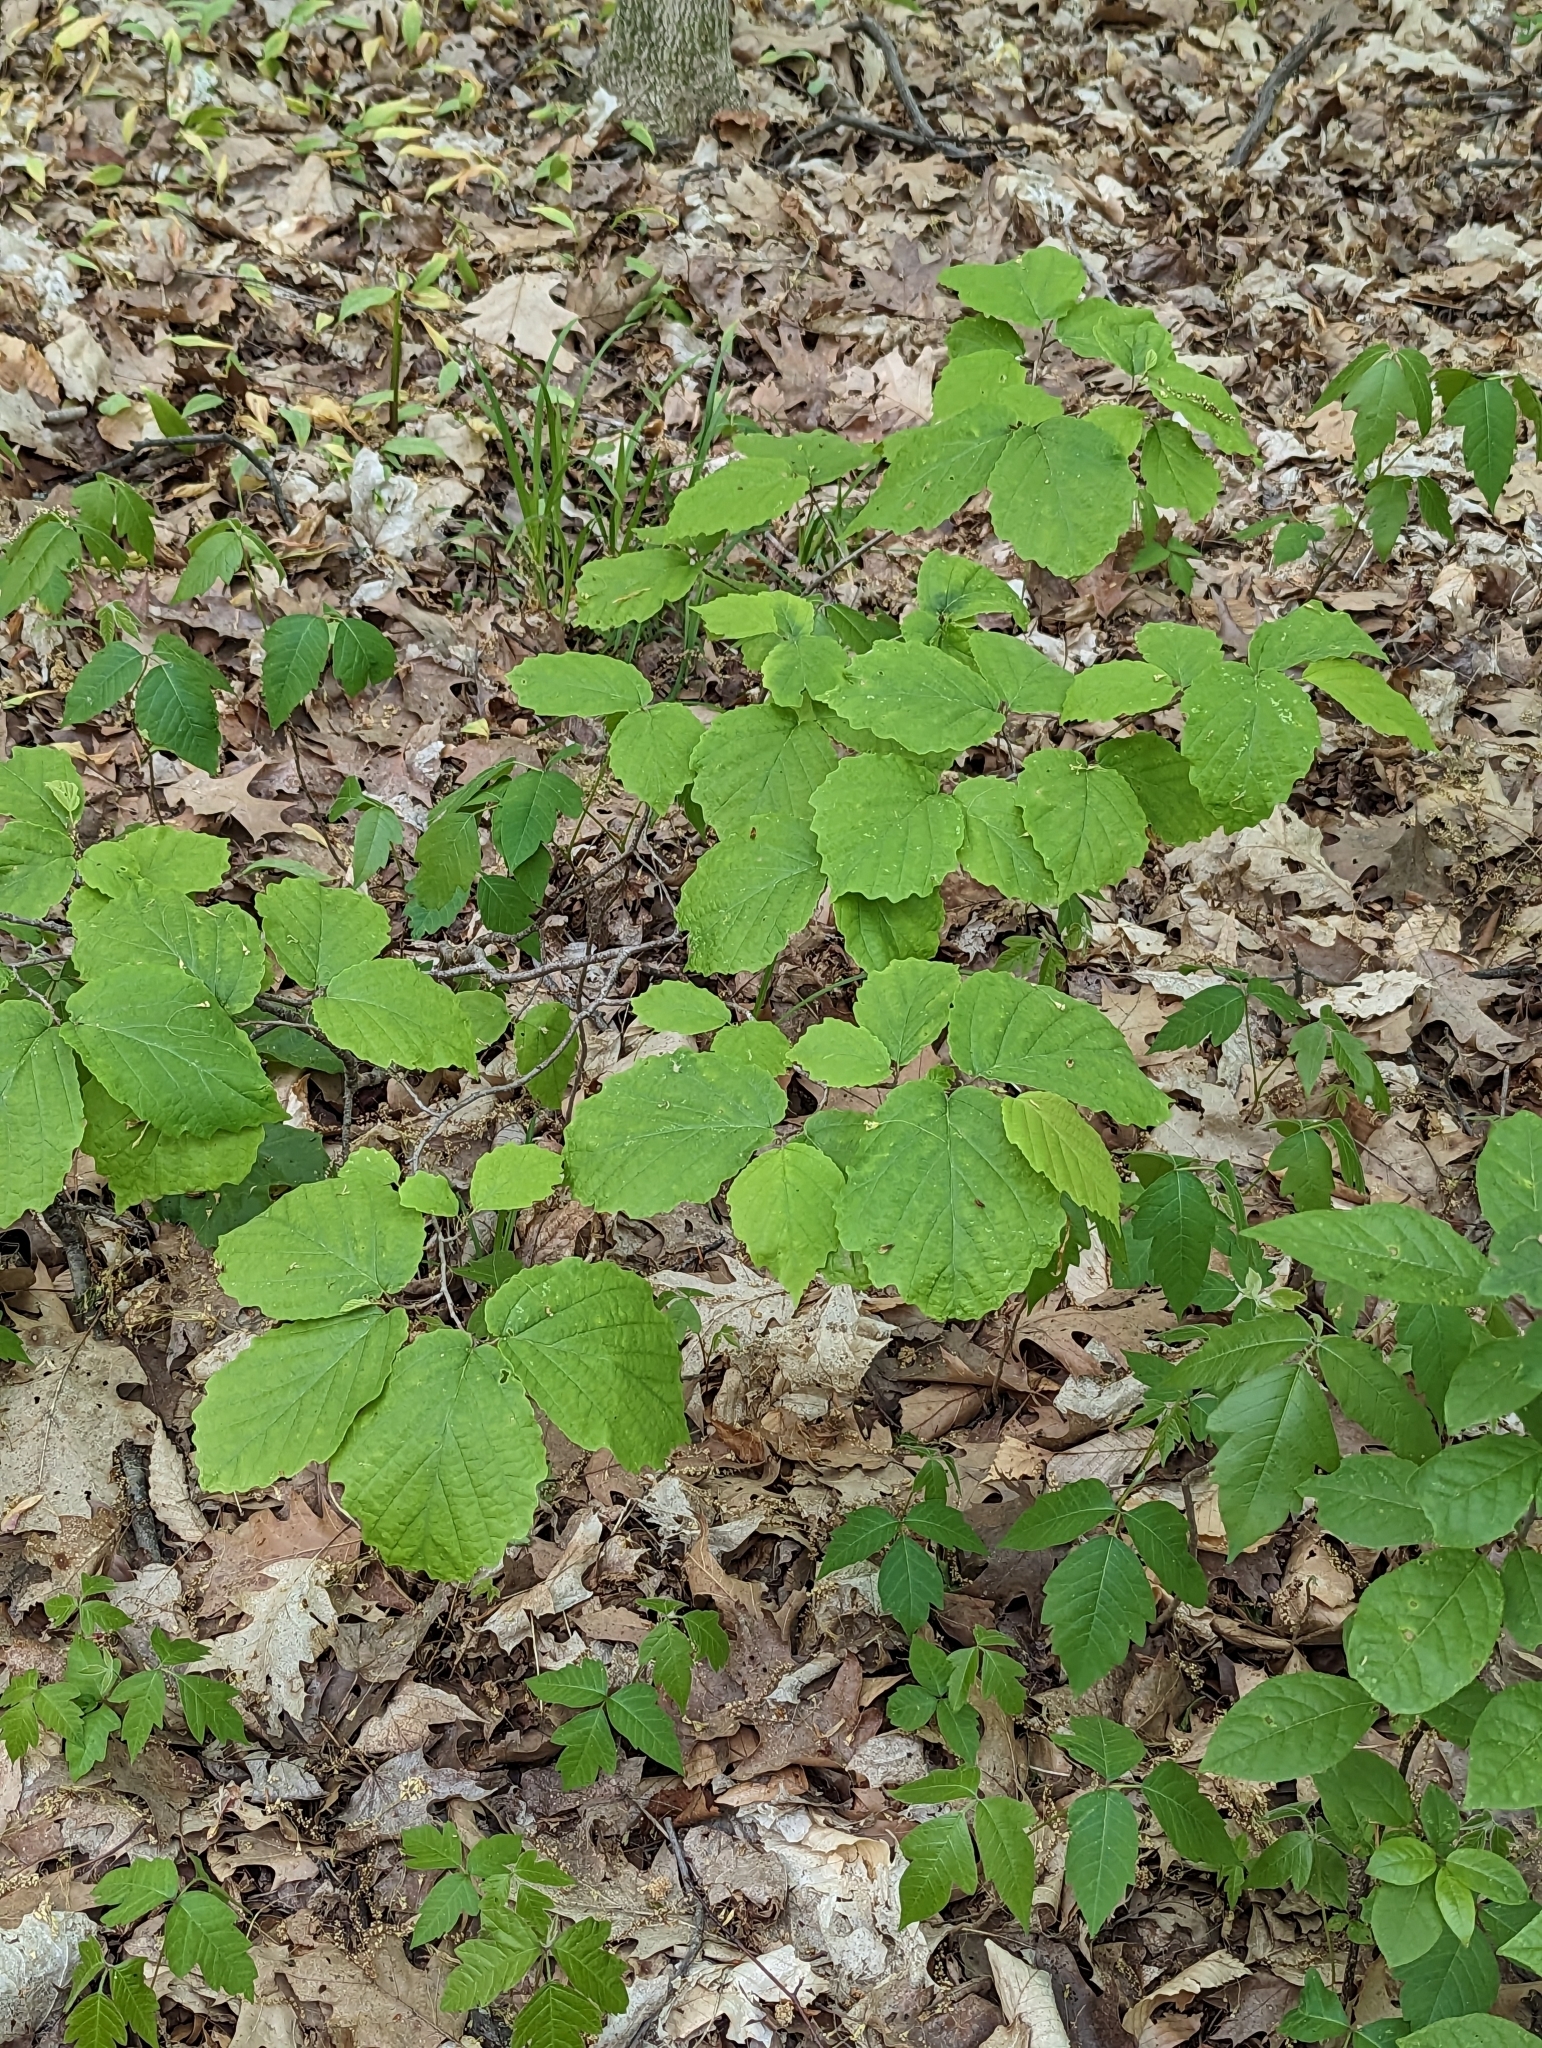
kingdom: Plantae
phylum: Tracheophyta
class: Magnoliopsida
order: Saxifragales
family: Hamamelidaceae
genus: Hamamelis
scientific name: Hamamelis virginiana
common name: Witch-hazel
